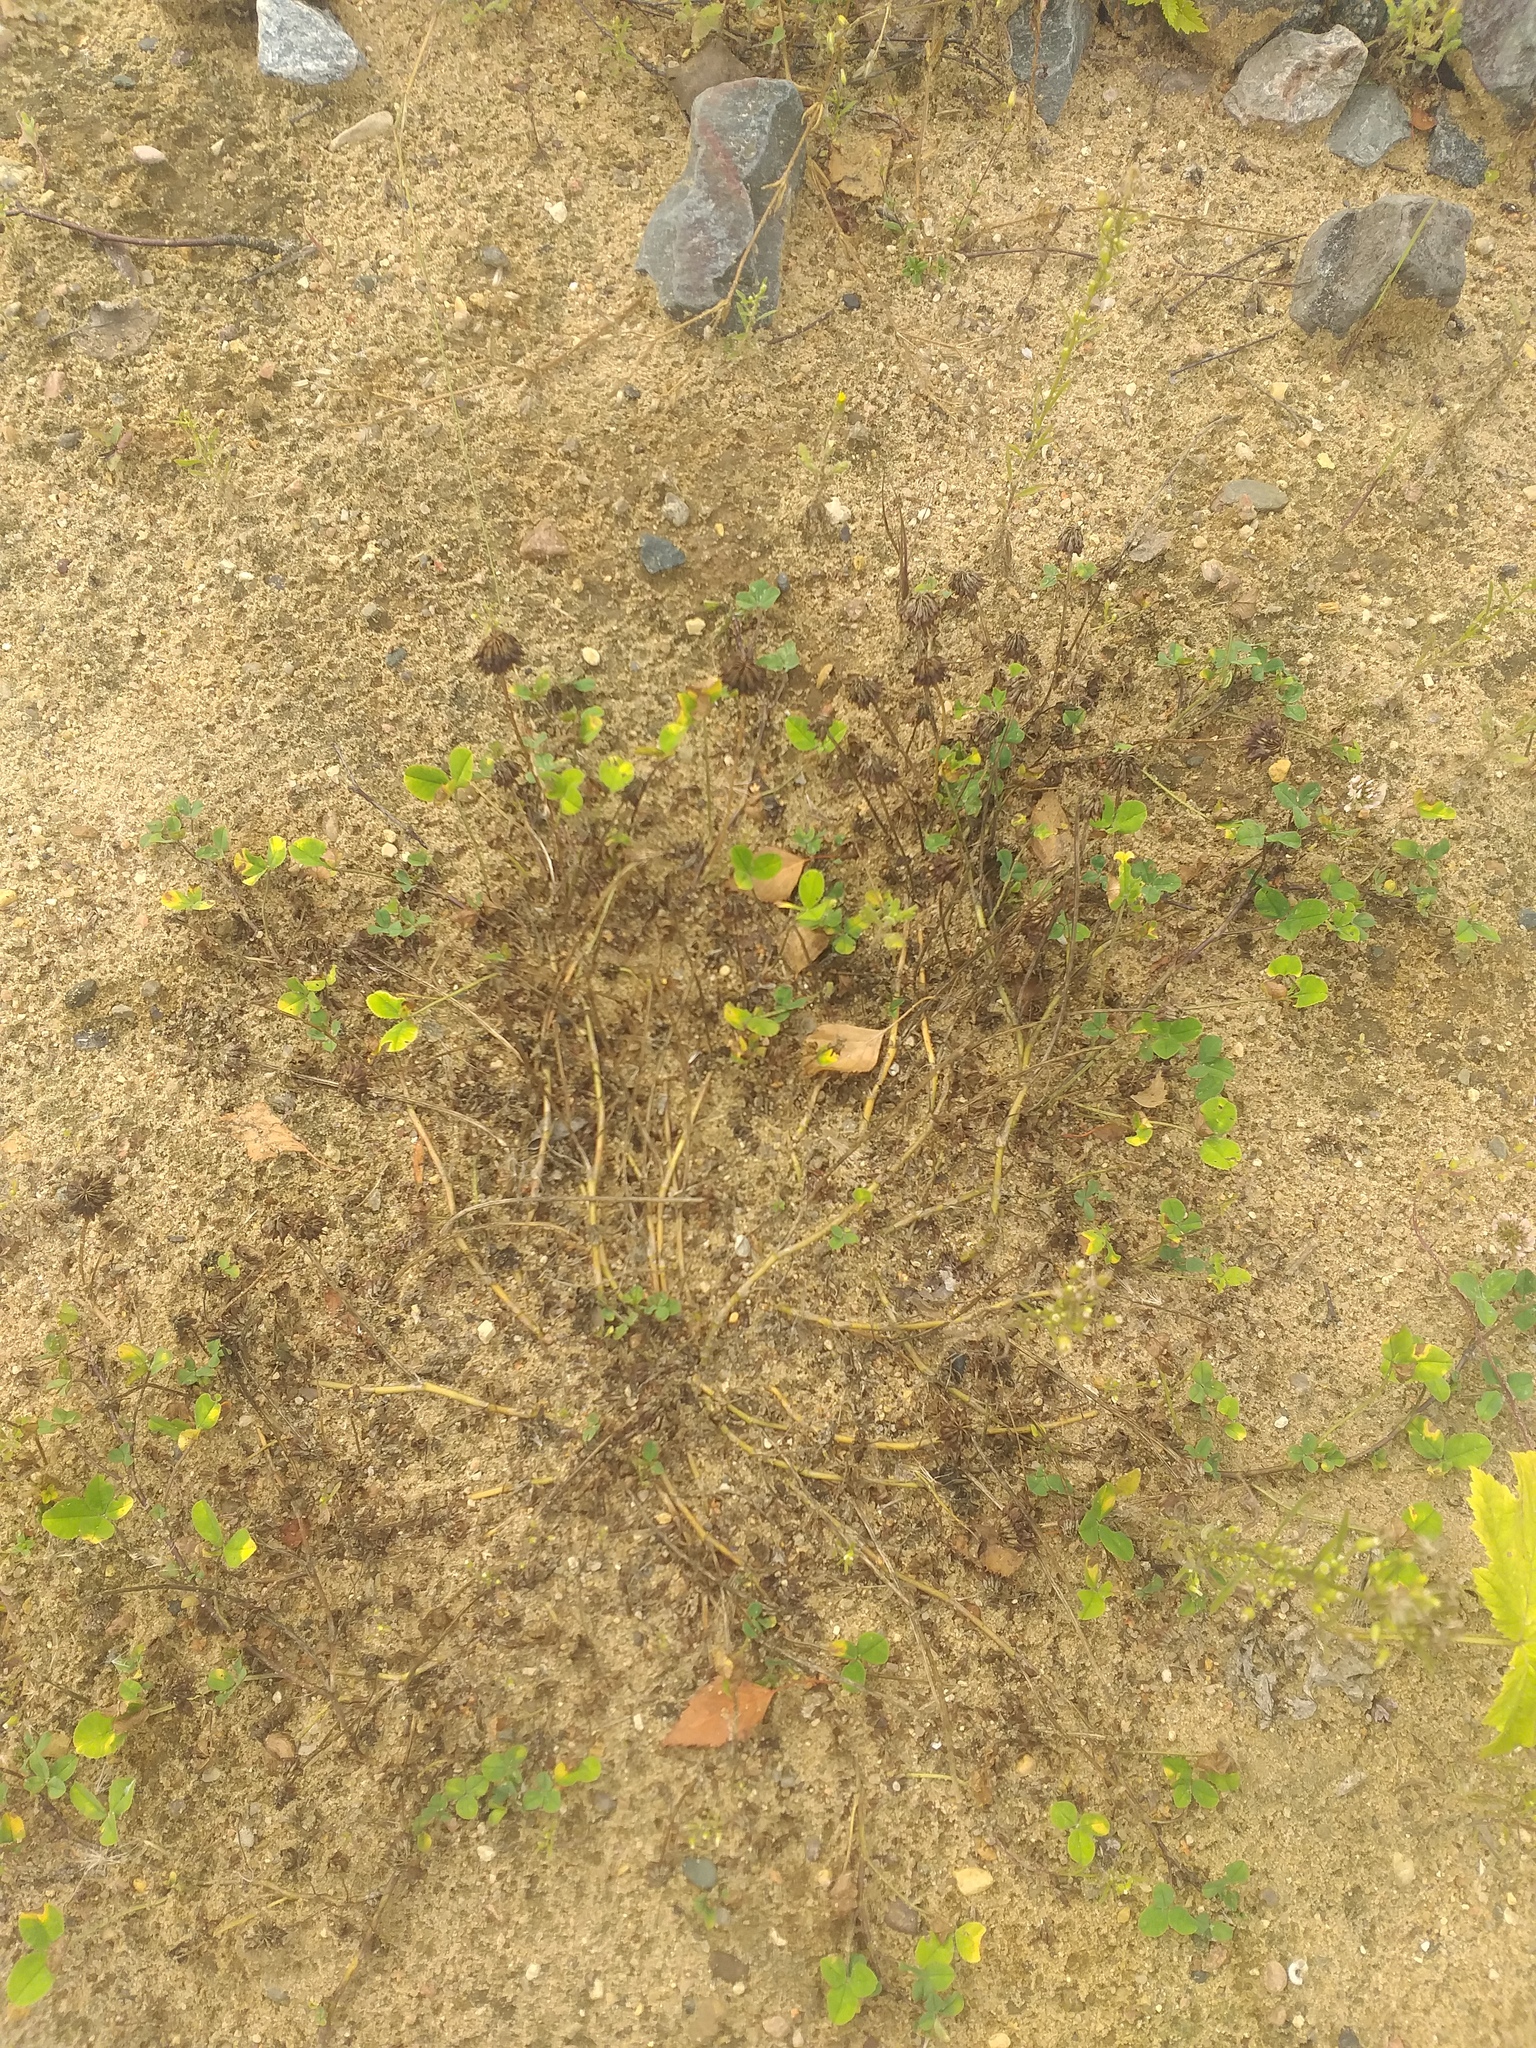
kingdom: Plantae
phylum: Tracheophyta
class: Magnoliopsida
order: Fabales
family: Fabaceae
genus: Trifolium
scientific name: Trifolium repens
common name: White clover
